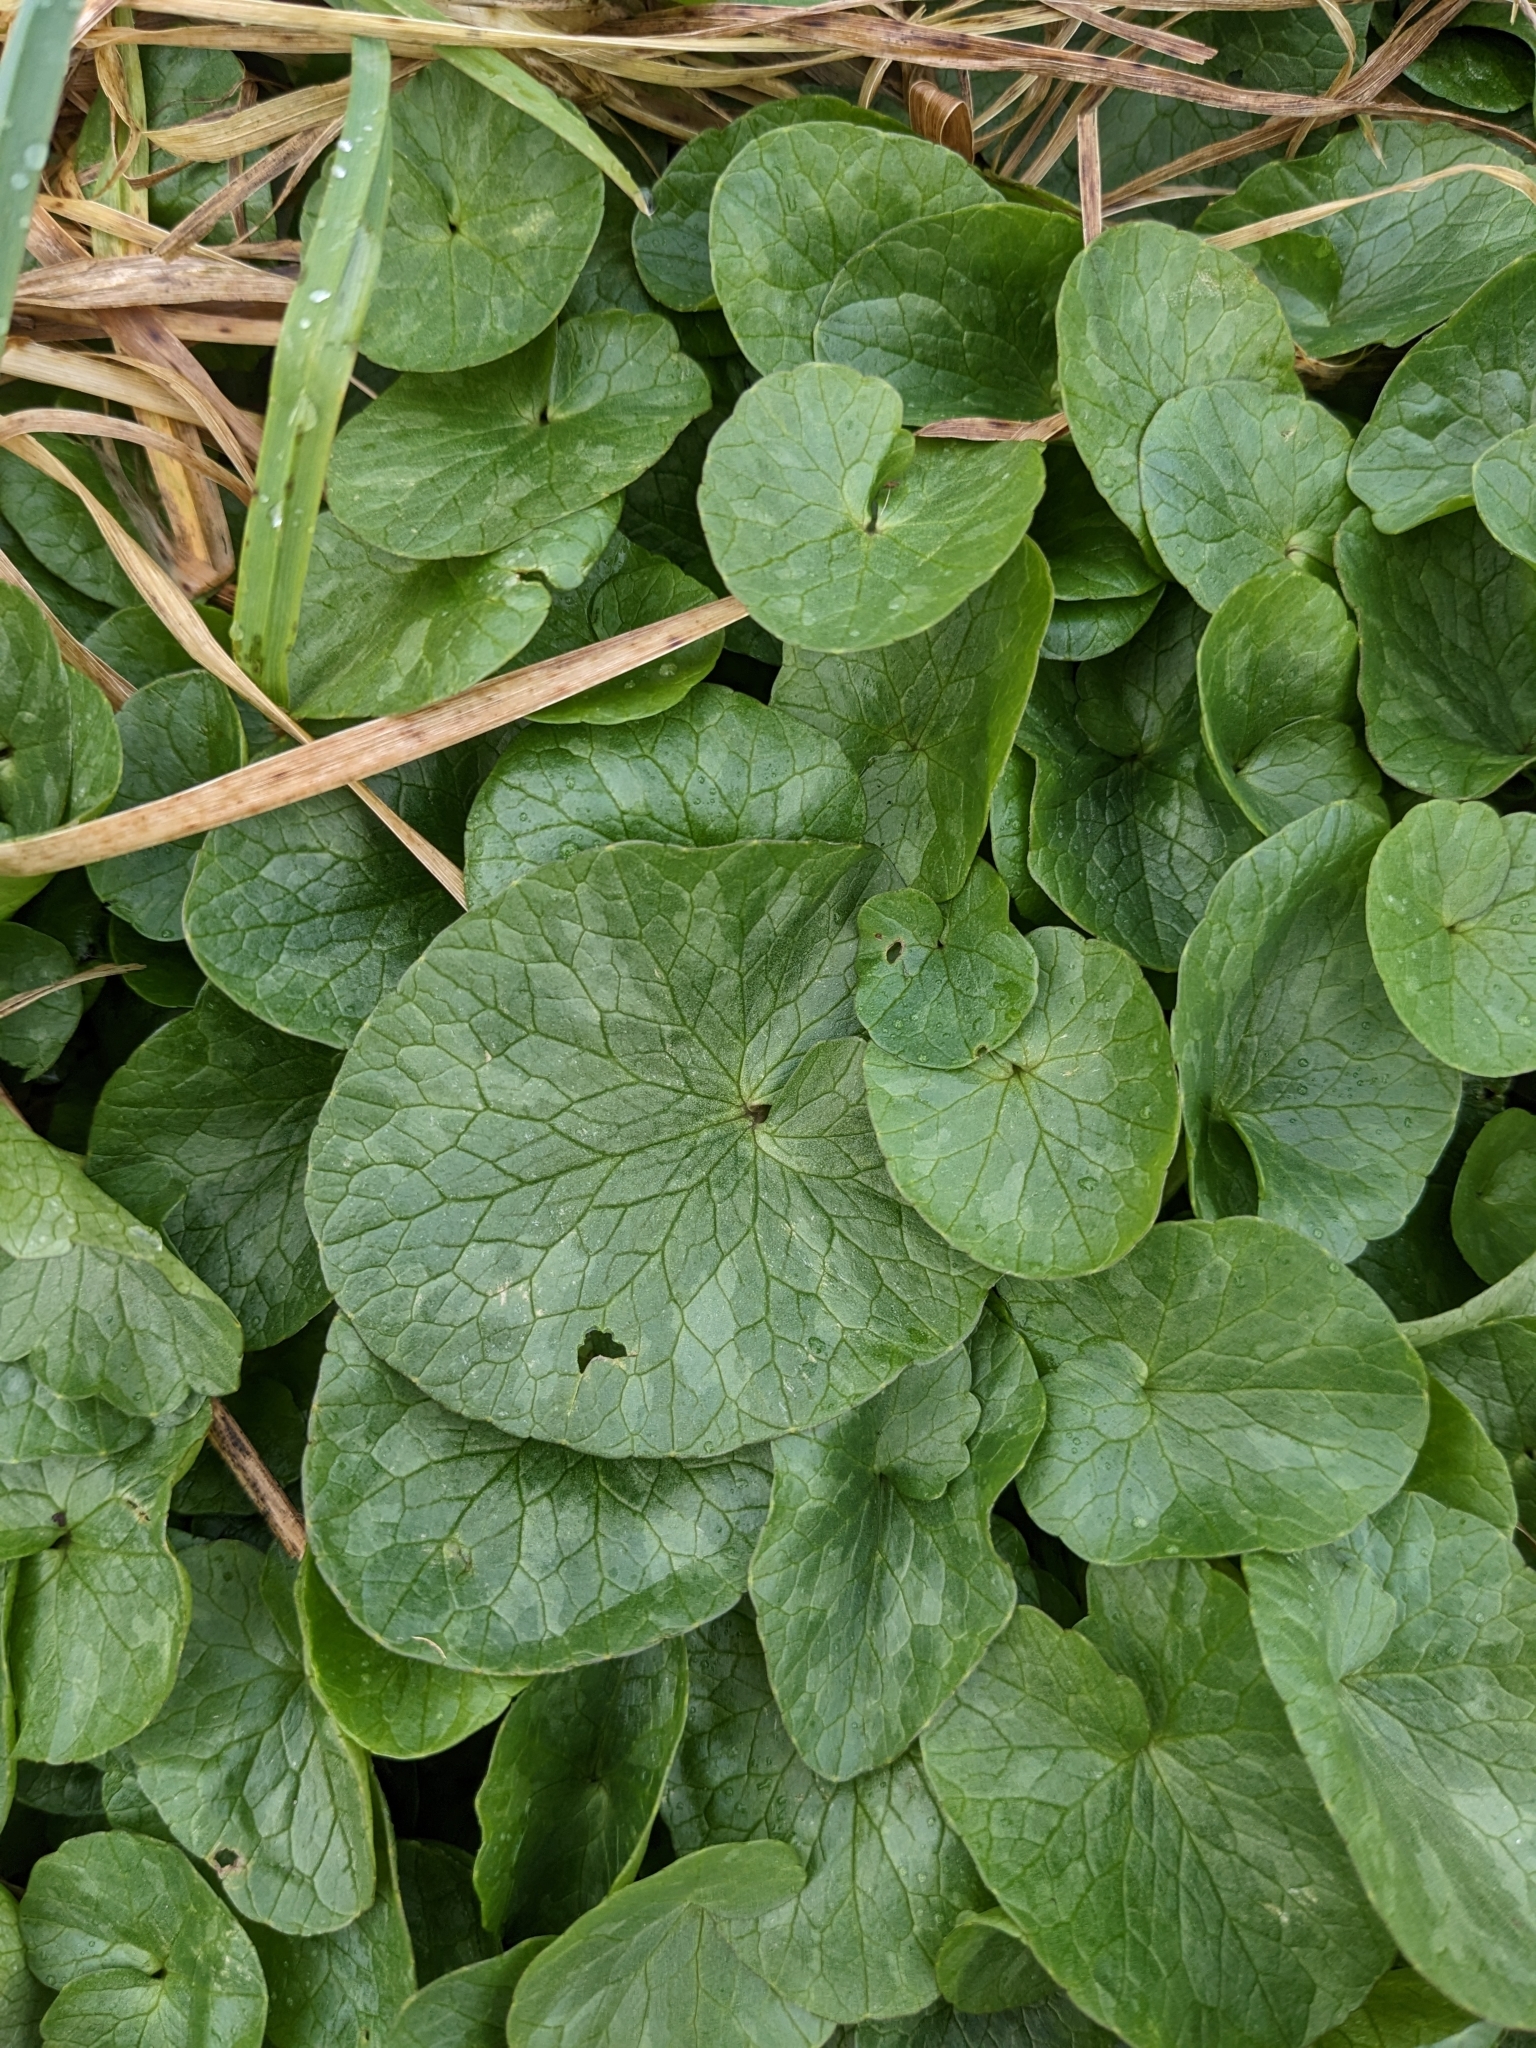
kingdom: Plantae
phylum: Tracheophyta
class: Magnoliopsida
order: Ranunculales
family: Ranunculaceae
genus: Ficaria
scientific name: Ficaria verna
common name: Lesser celandine
